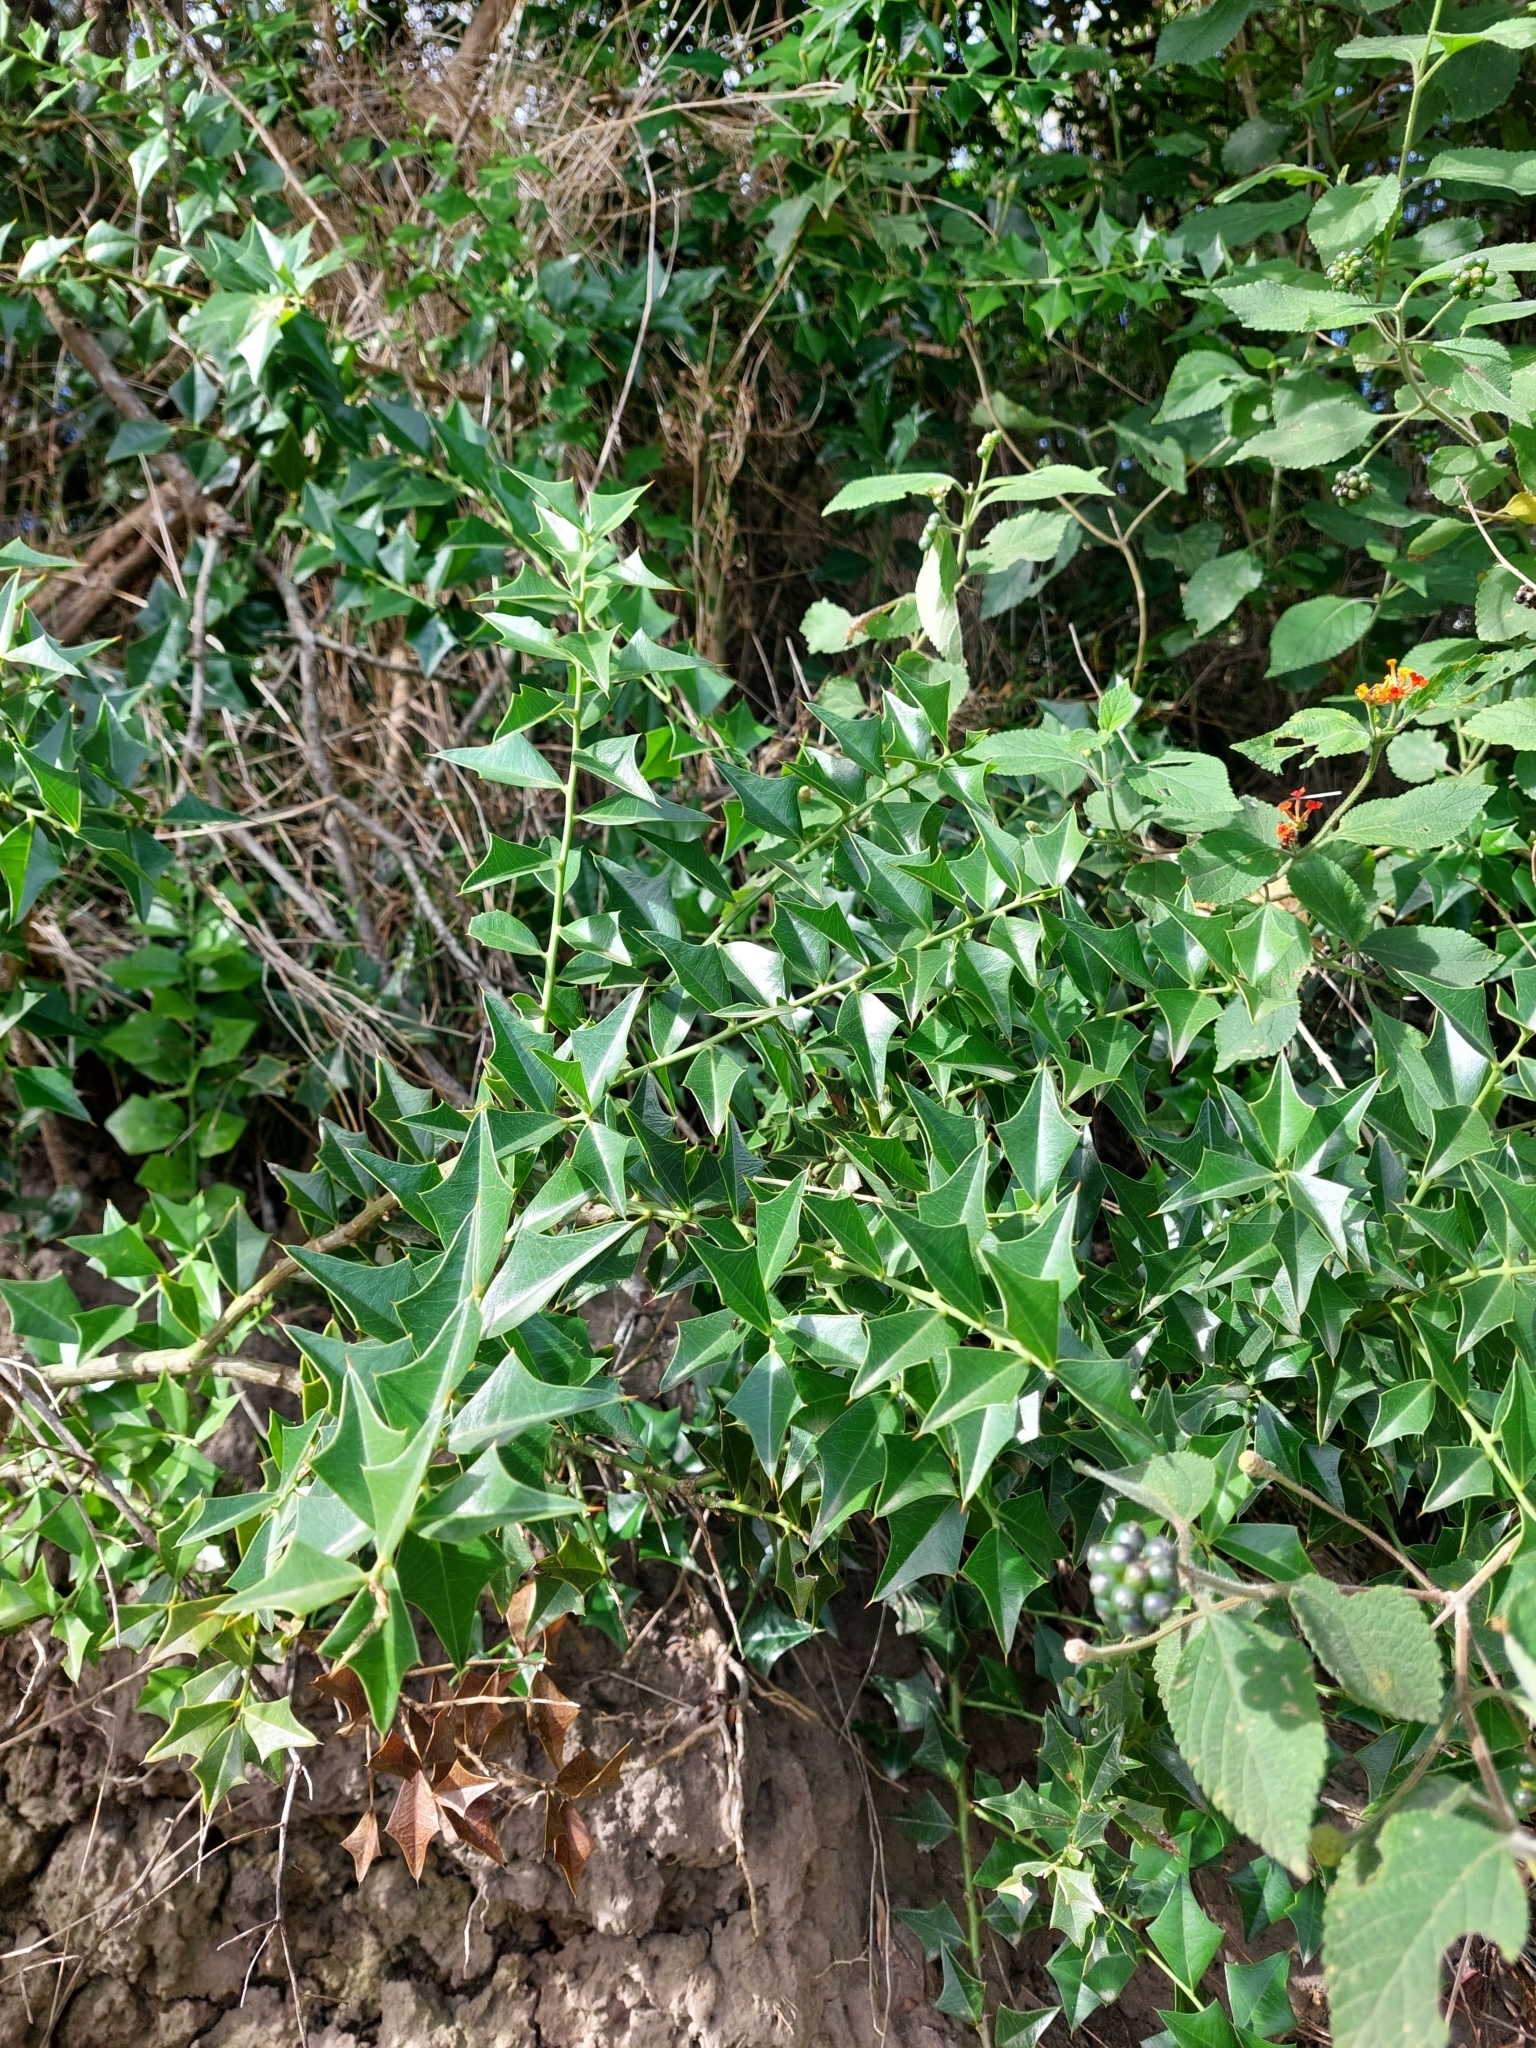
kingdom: Plantae
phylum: Tracheophyta
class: Magnoliopsida
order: Santalales
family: Cervantesiaceae
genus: Jodina
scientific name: Jodina rhombifolia
